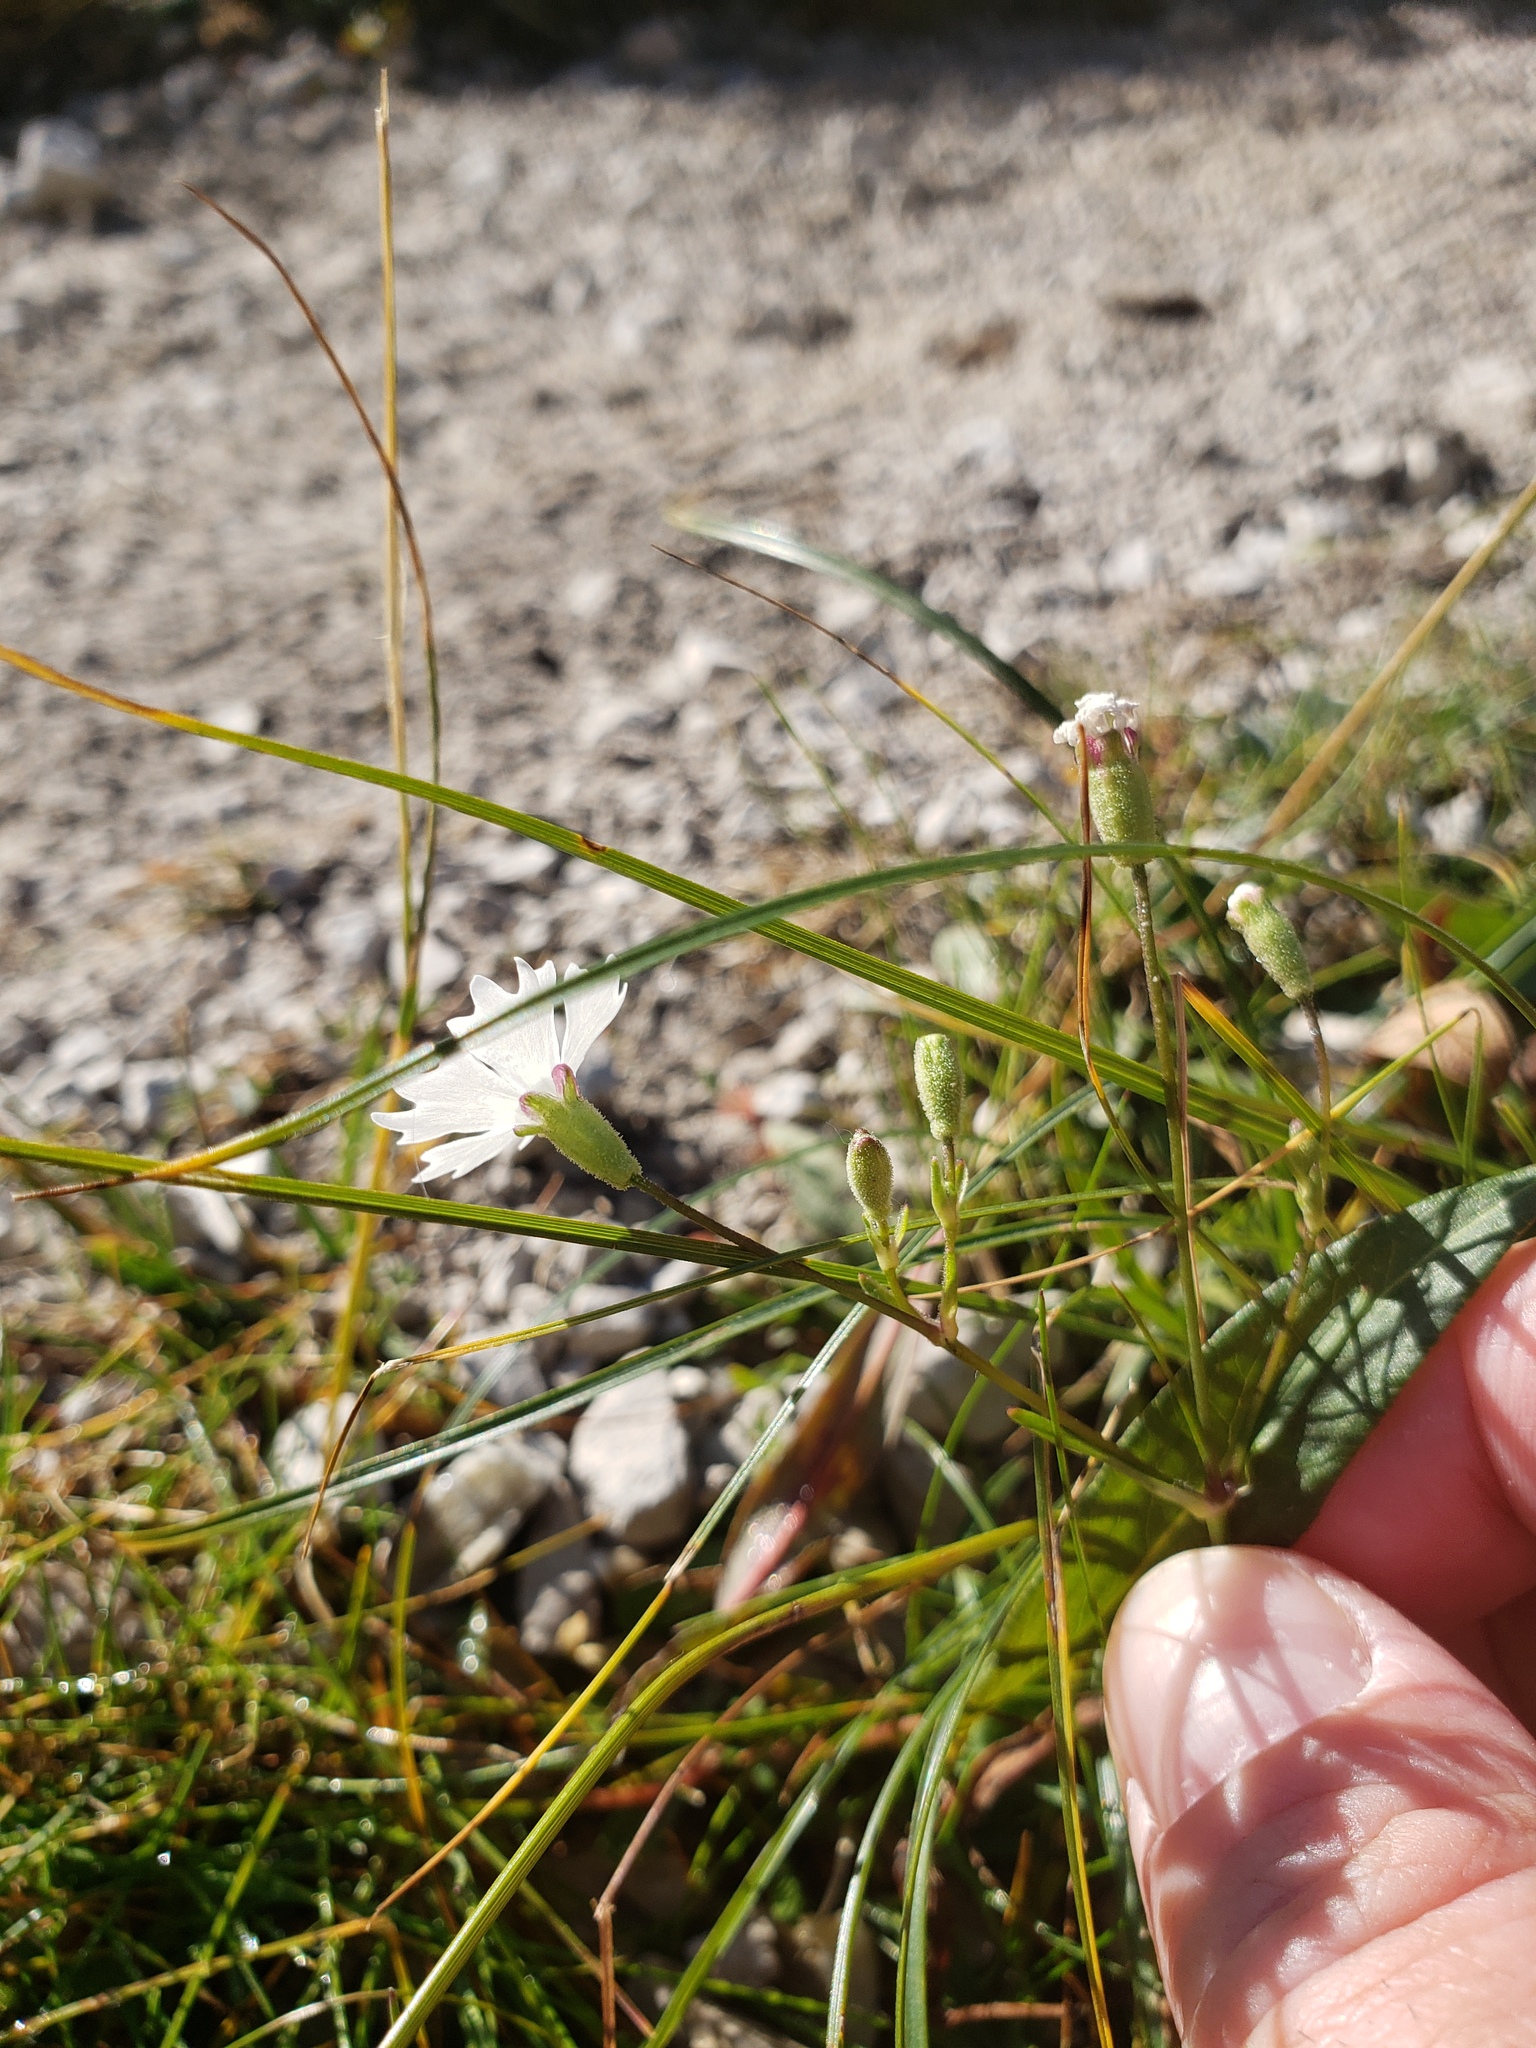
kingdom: Plantae
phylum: Tracheophyta
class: Magnoliopsida
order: Caryophyllales
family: Caryophyllaceae
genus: Heliosperma
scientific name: Heliosperma alpestre
